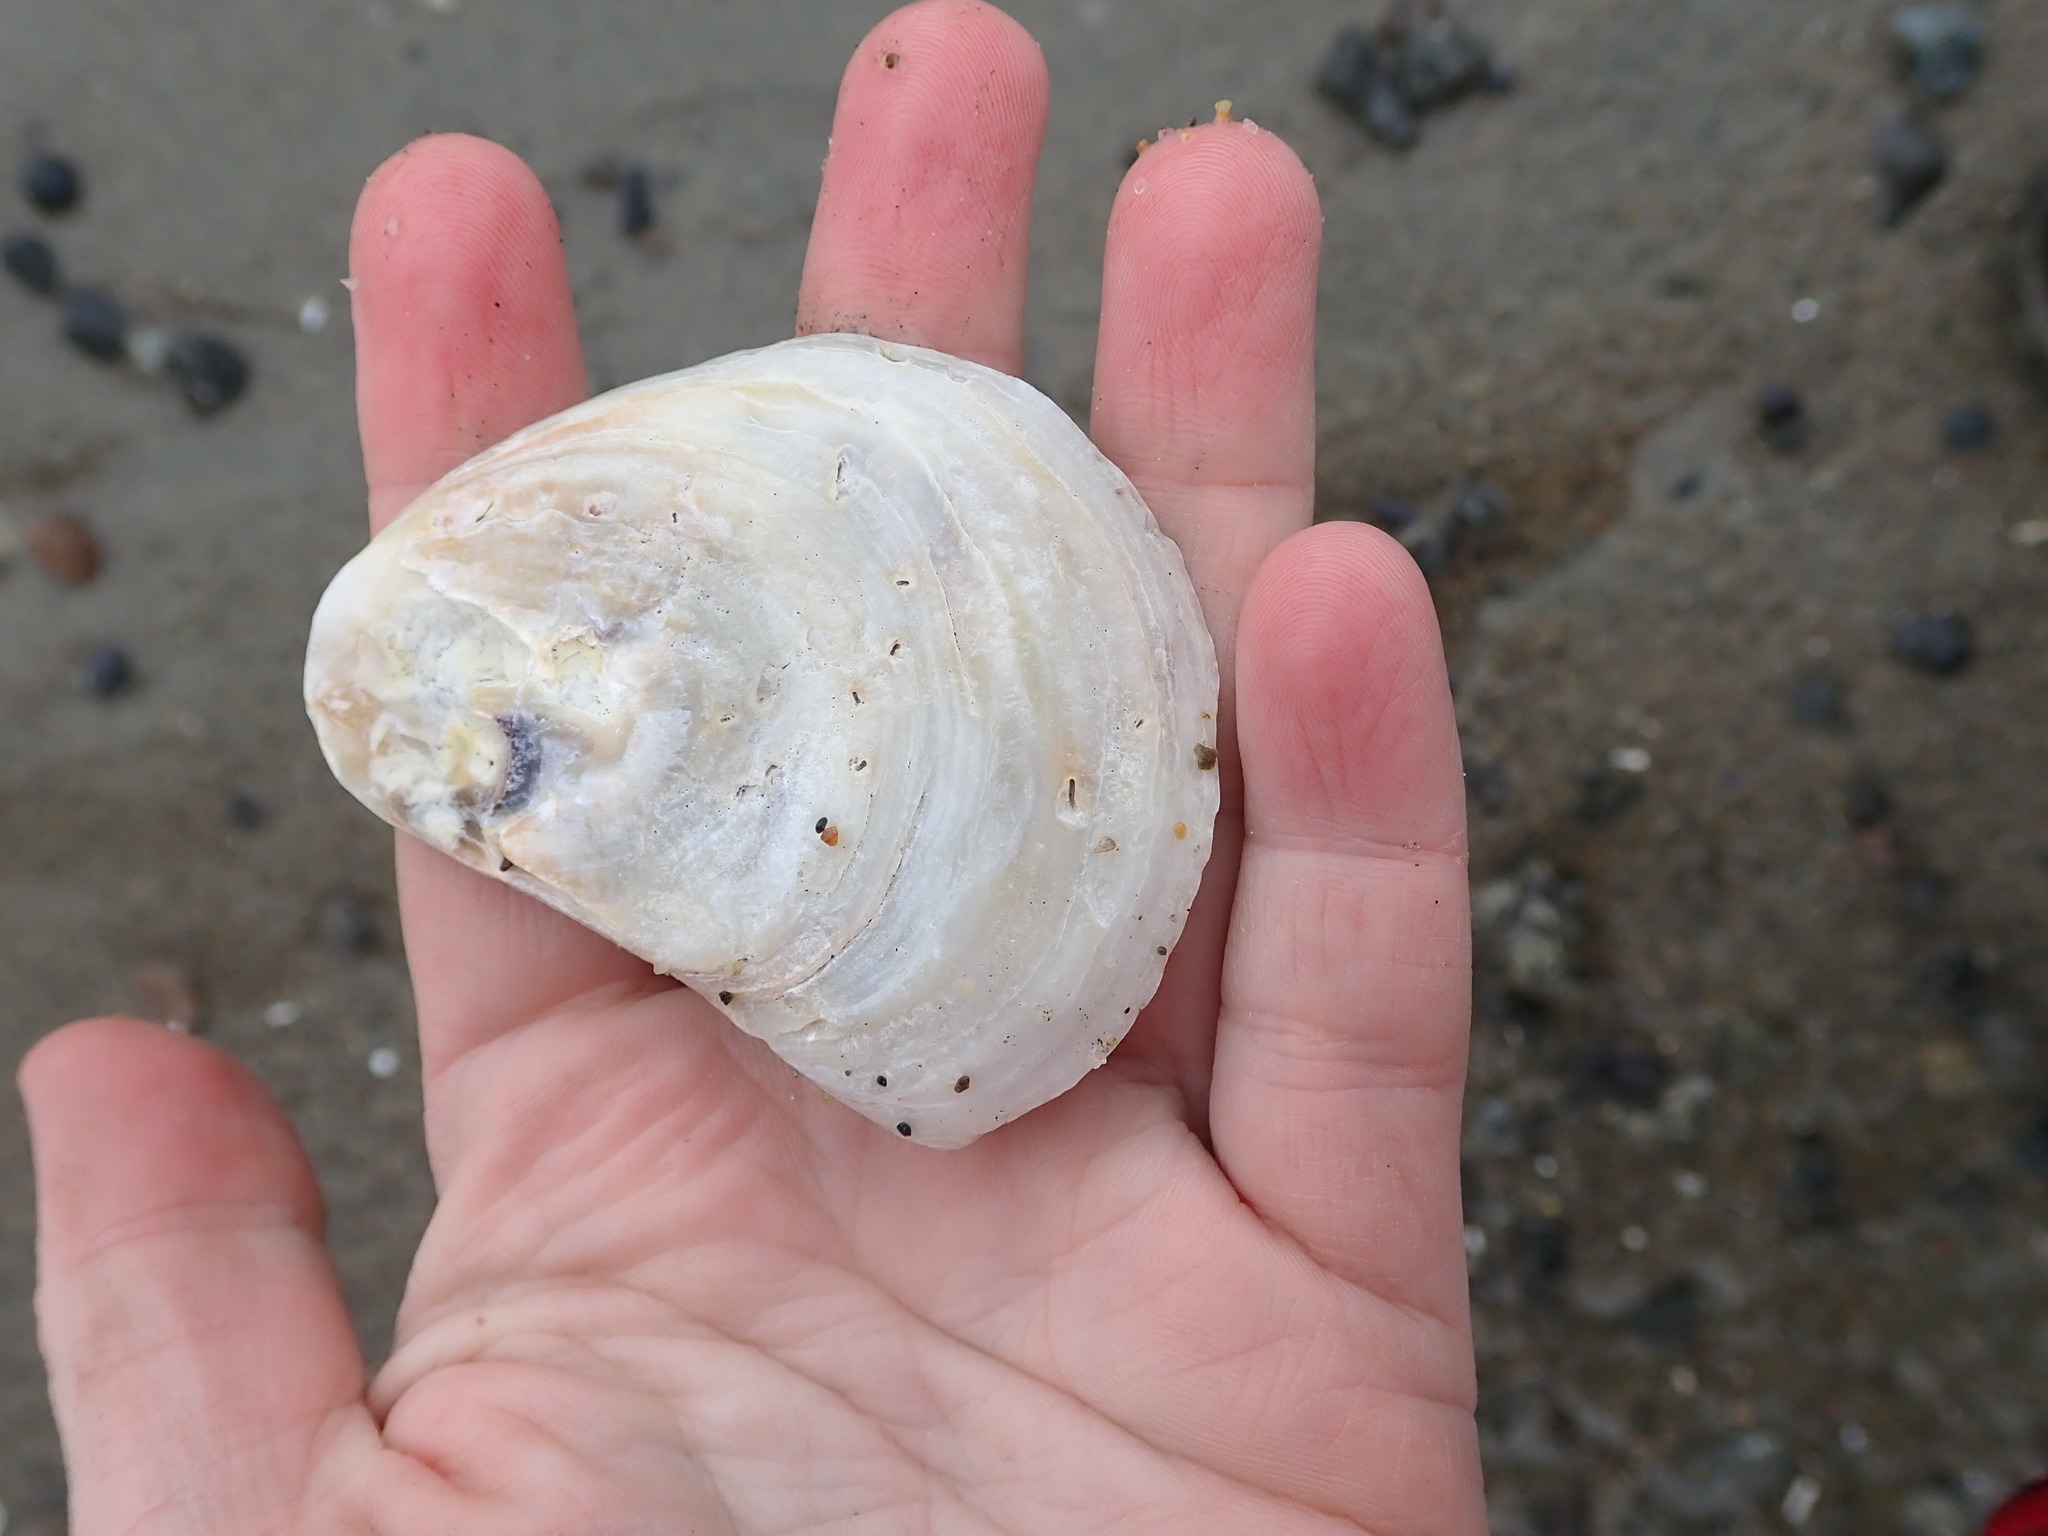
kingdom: Animalia
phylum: Mollusca
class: Bivalvia
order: Ostreida
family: Ostreidae
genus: Crassostrea
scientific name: Crassostrea virginica
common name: American oyster
